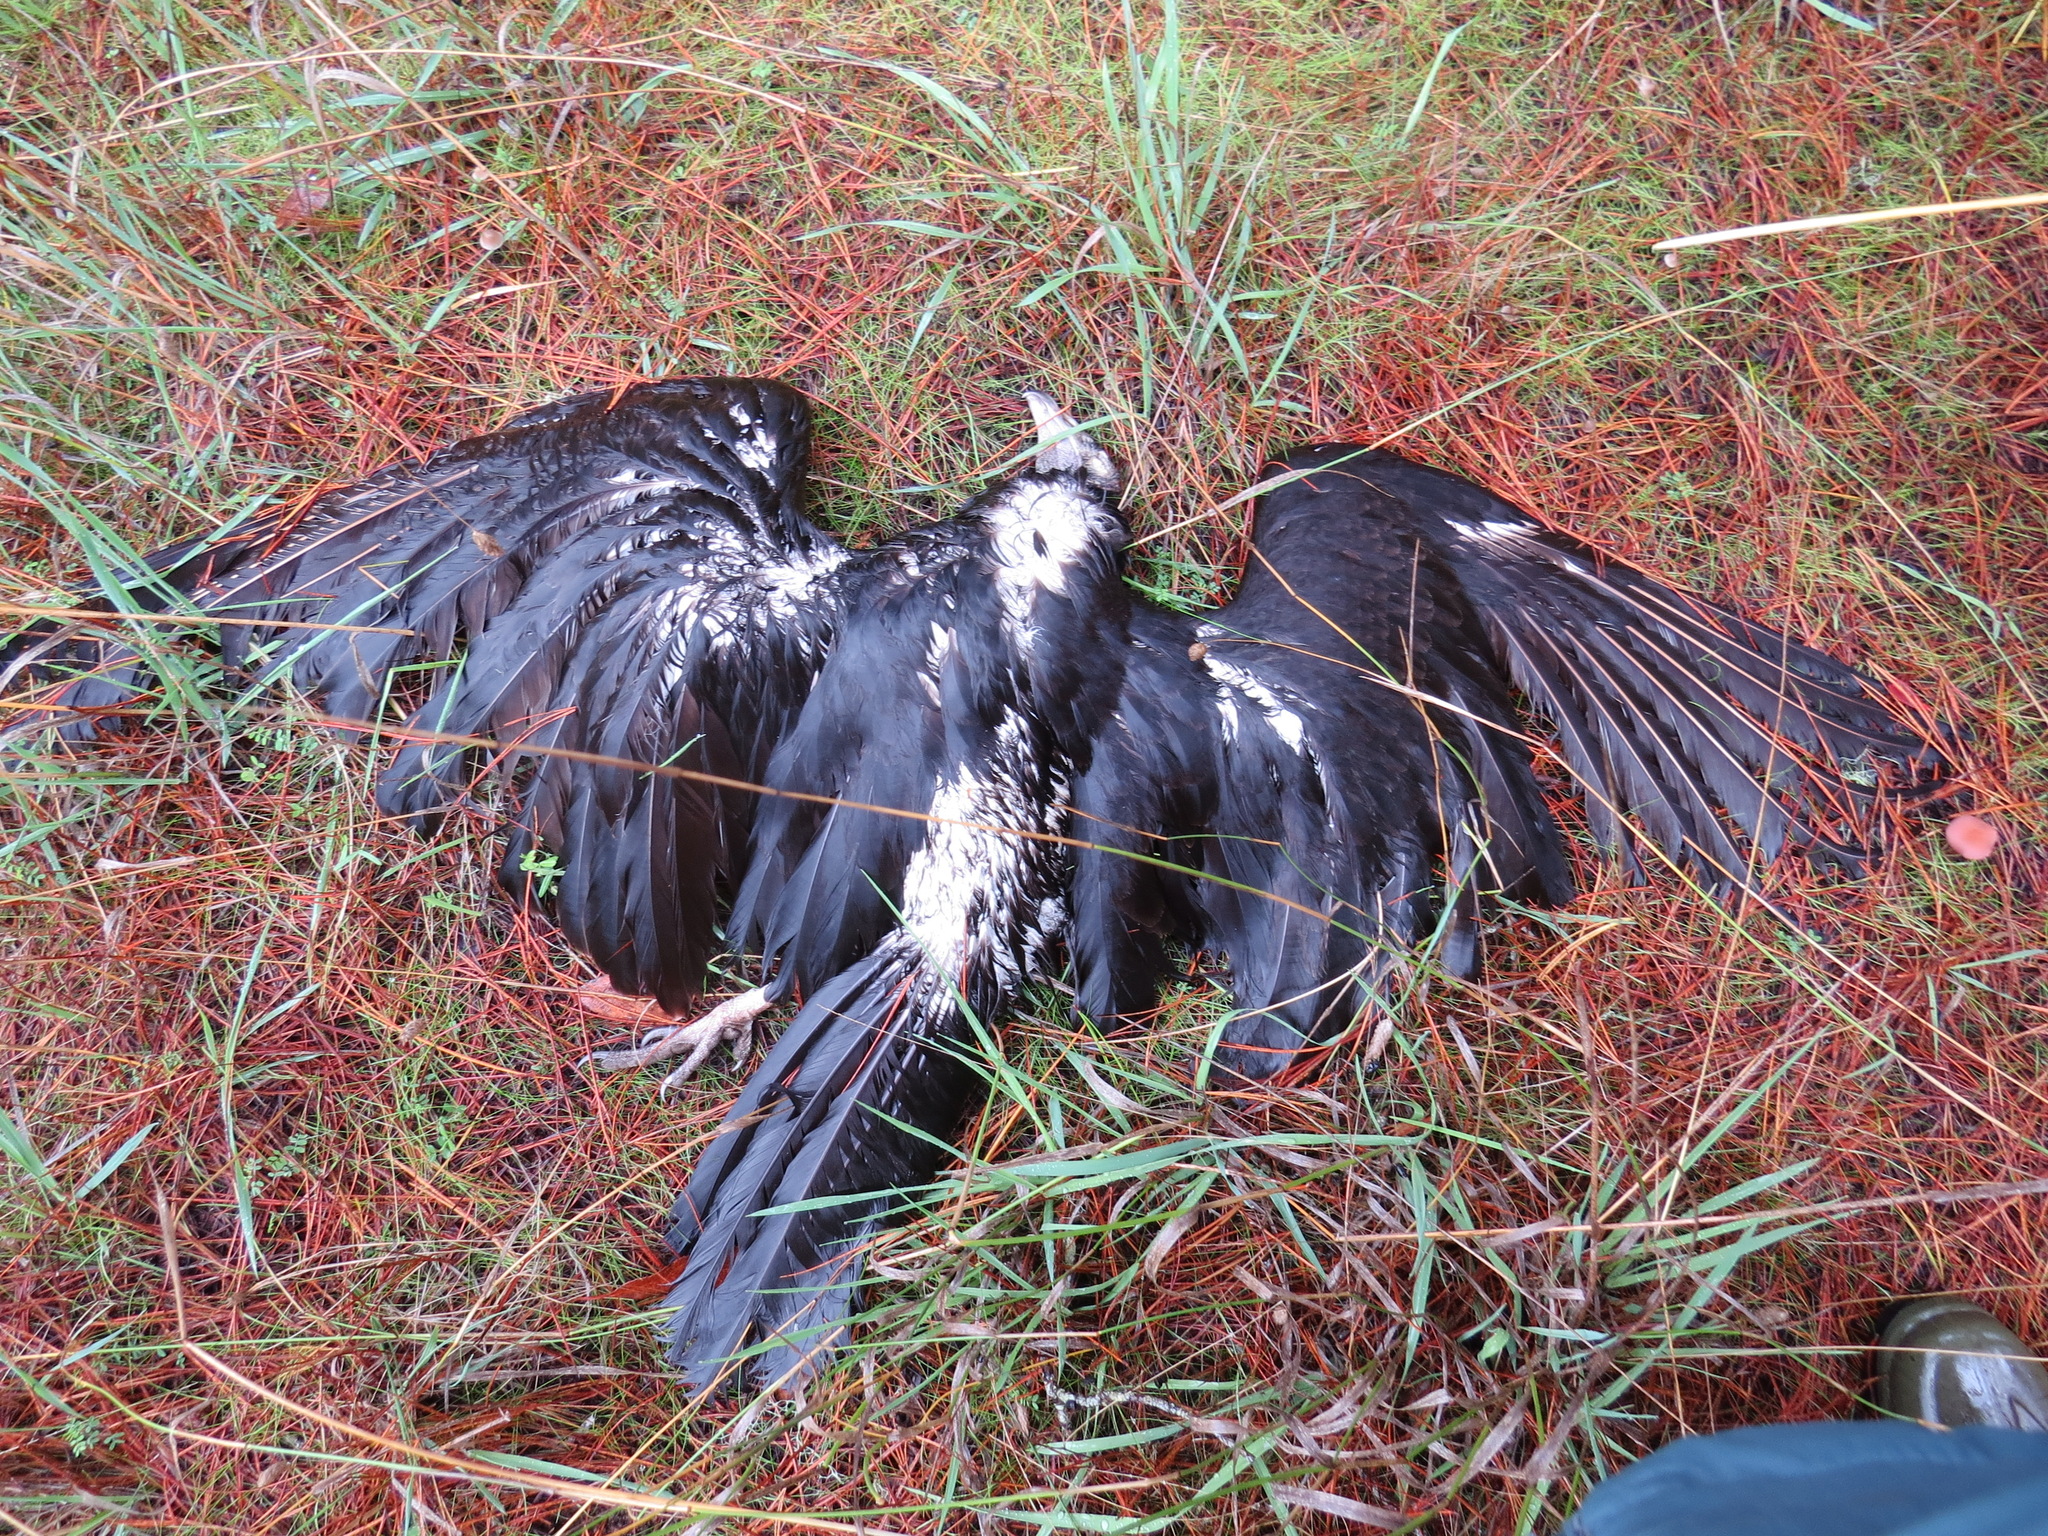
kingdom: Animalia
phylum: Chordata
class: Aves
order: Accipitriformes
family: Cathartidae
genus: Cathartes
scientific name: Cathartes aura
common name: Turkey vulture
